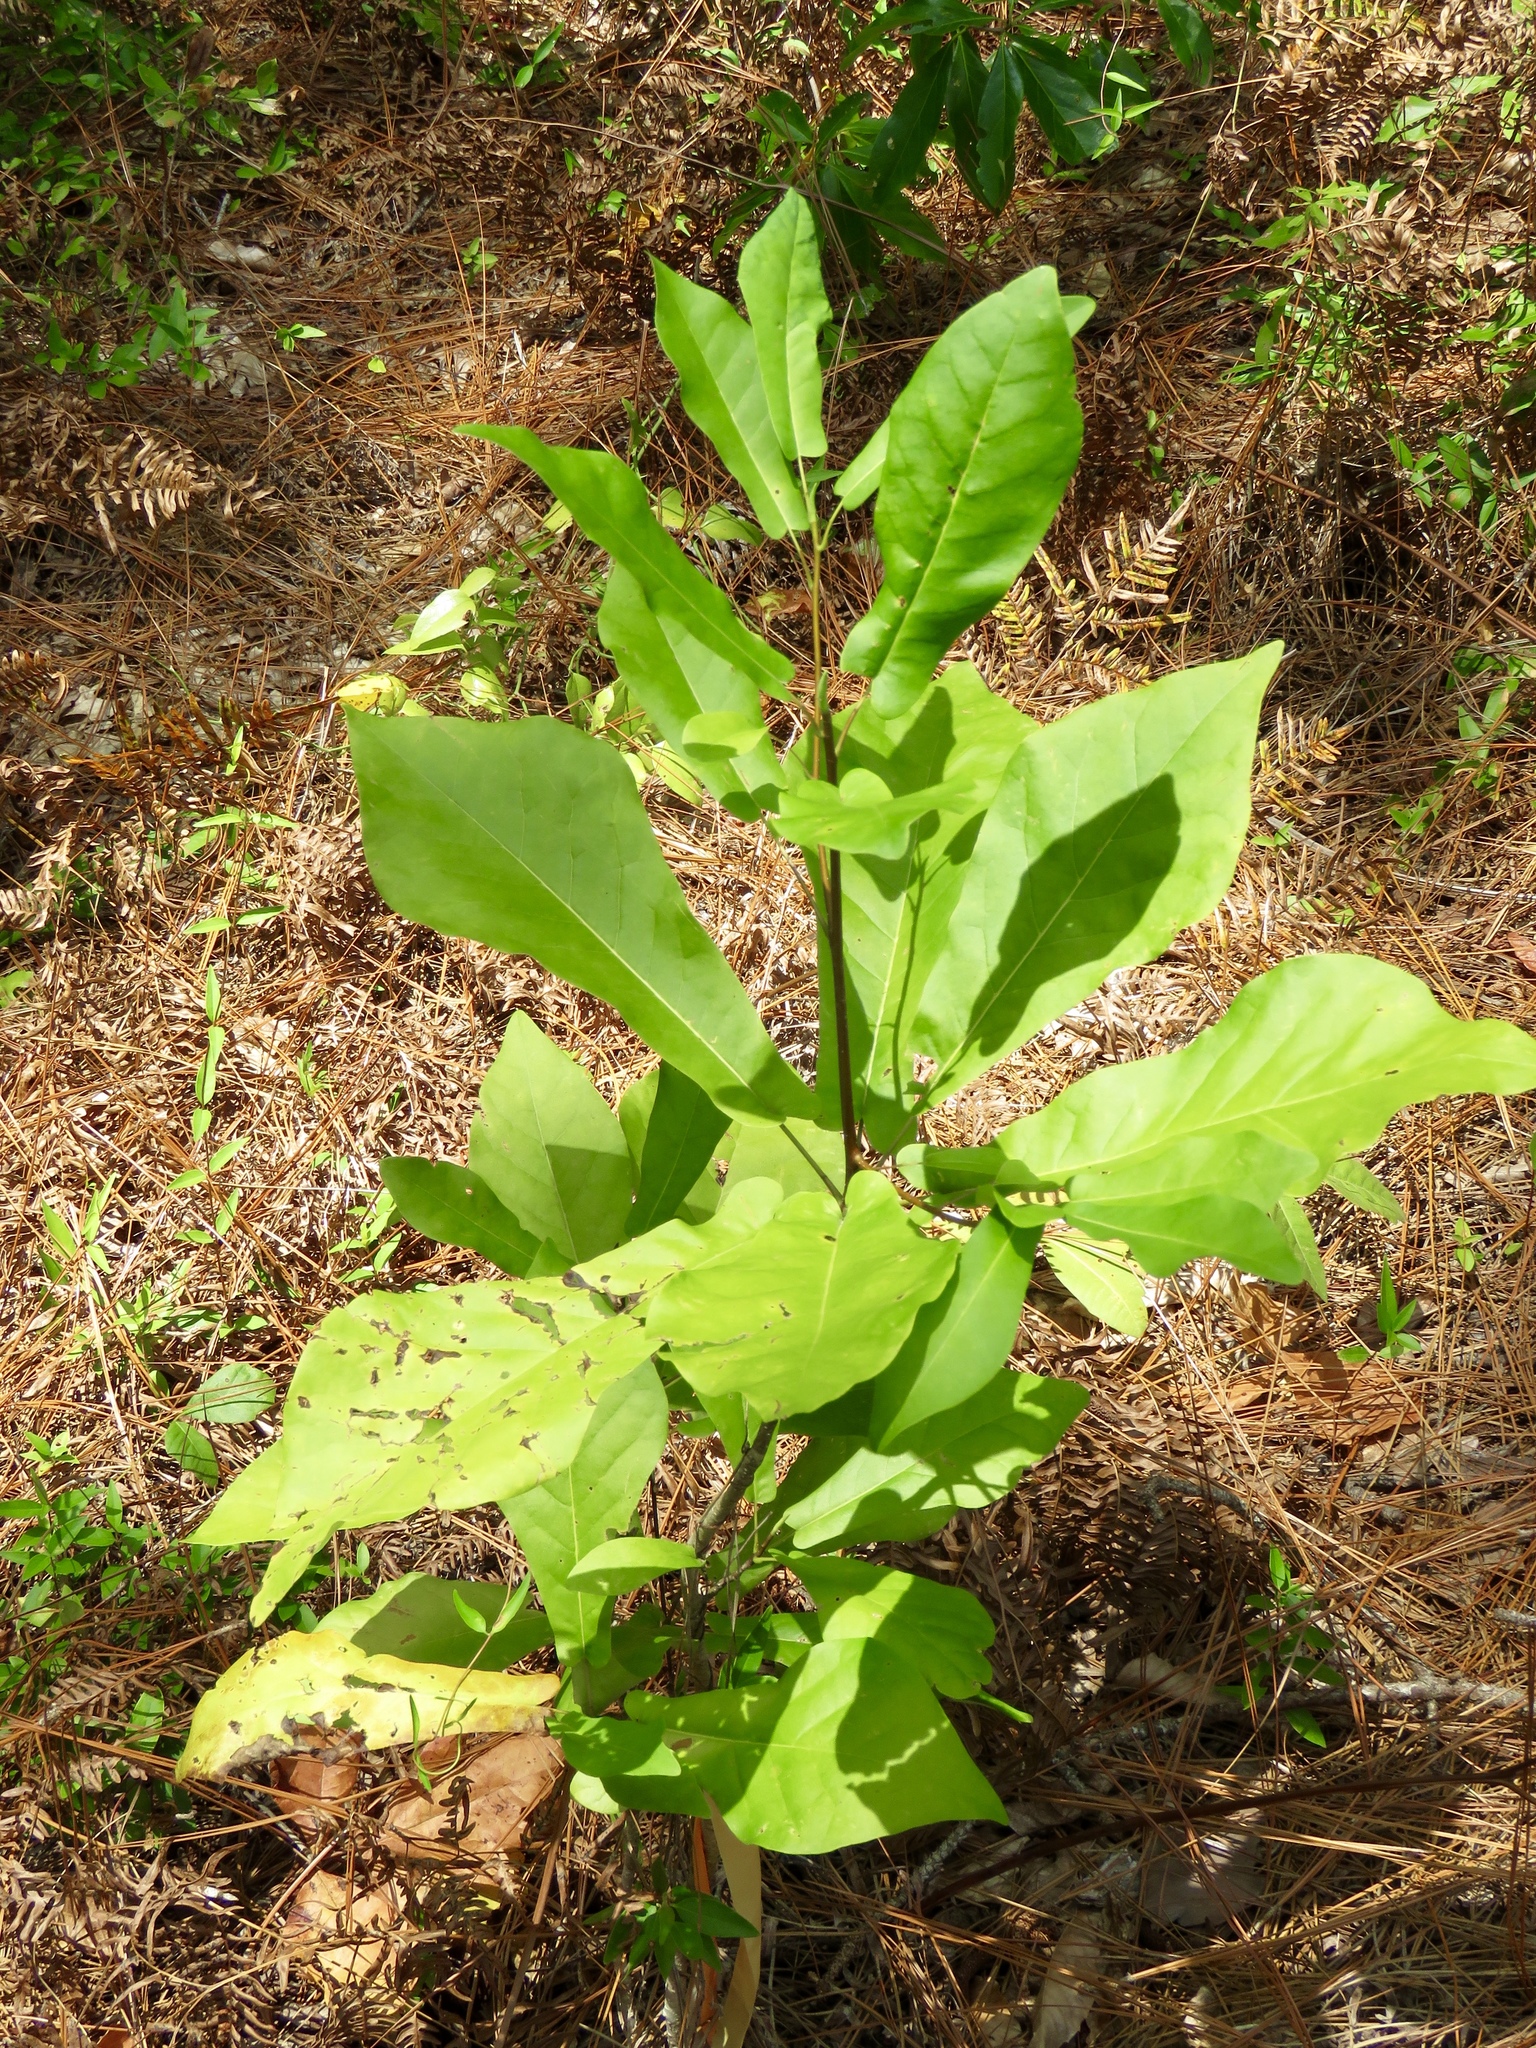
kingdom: Plantae
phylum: Tracheophyta
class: Magnoliopsida
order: Magnoliales
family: Magnoliaceae
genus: Magnolia
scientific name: Magnolia fraseri
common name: Fraser's magnolia
